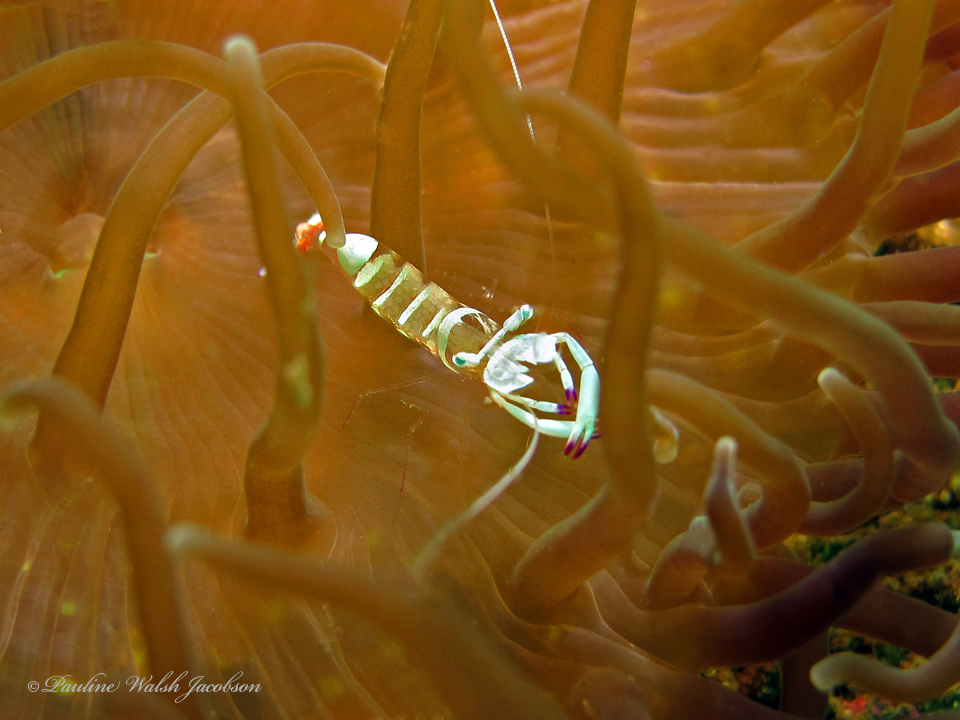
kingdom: Animalia
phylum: Arthropoda
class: Malacostraca
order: Decapoda
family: Palaemonidae
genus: Ancylomenes
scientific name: Ancylomenes magnificus
